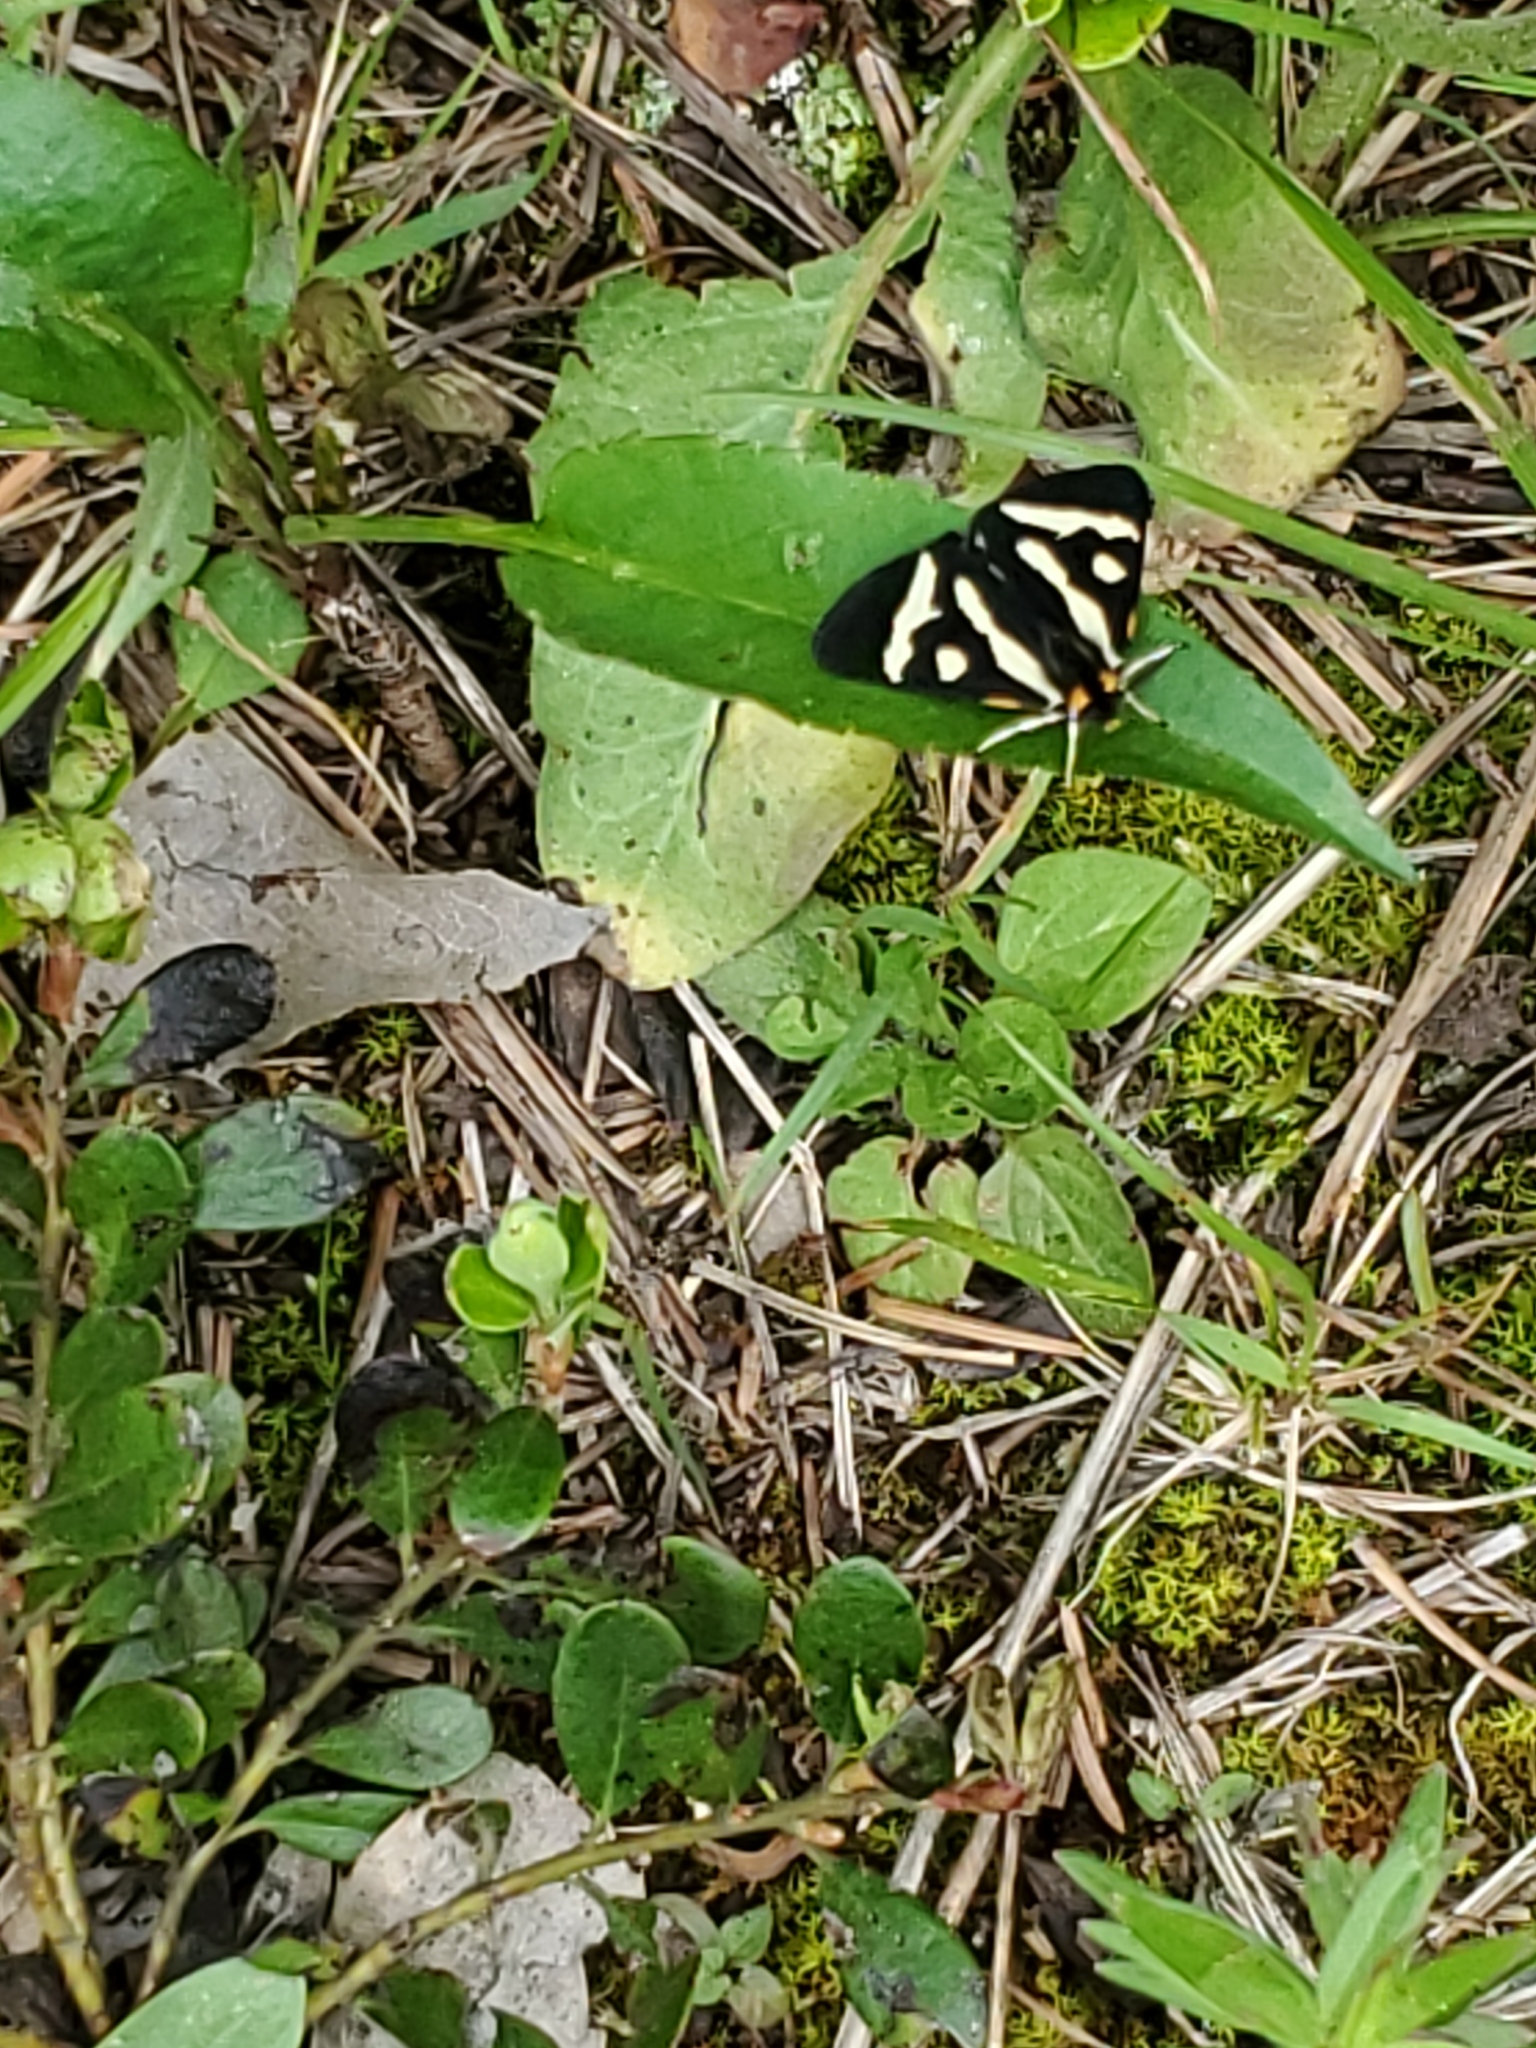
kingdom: Animalia
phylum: Arthropoda
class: Insecta
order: Lepidoptera
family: Erebidae
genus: Parasemia
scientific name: Parasemia plantaginis
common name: Wood tiger
